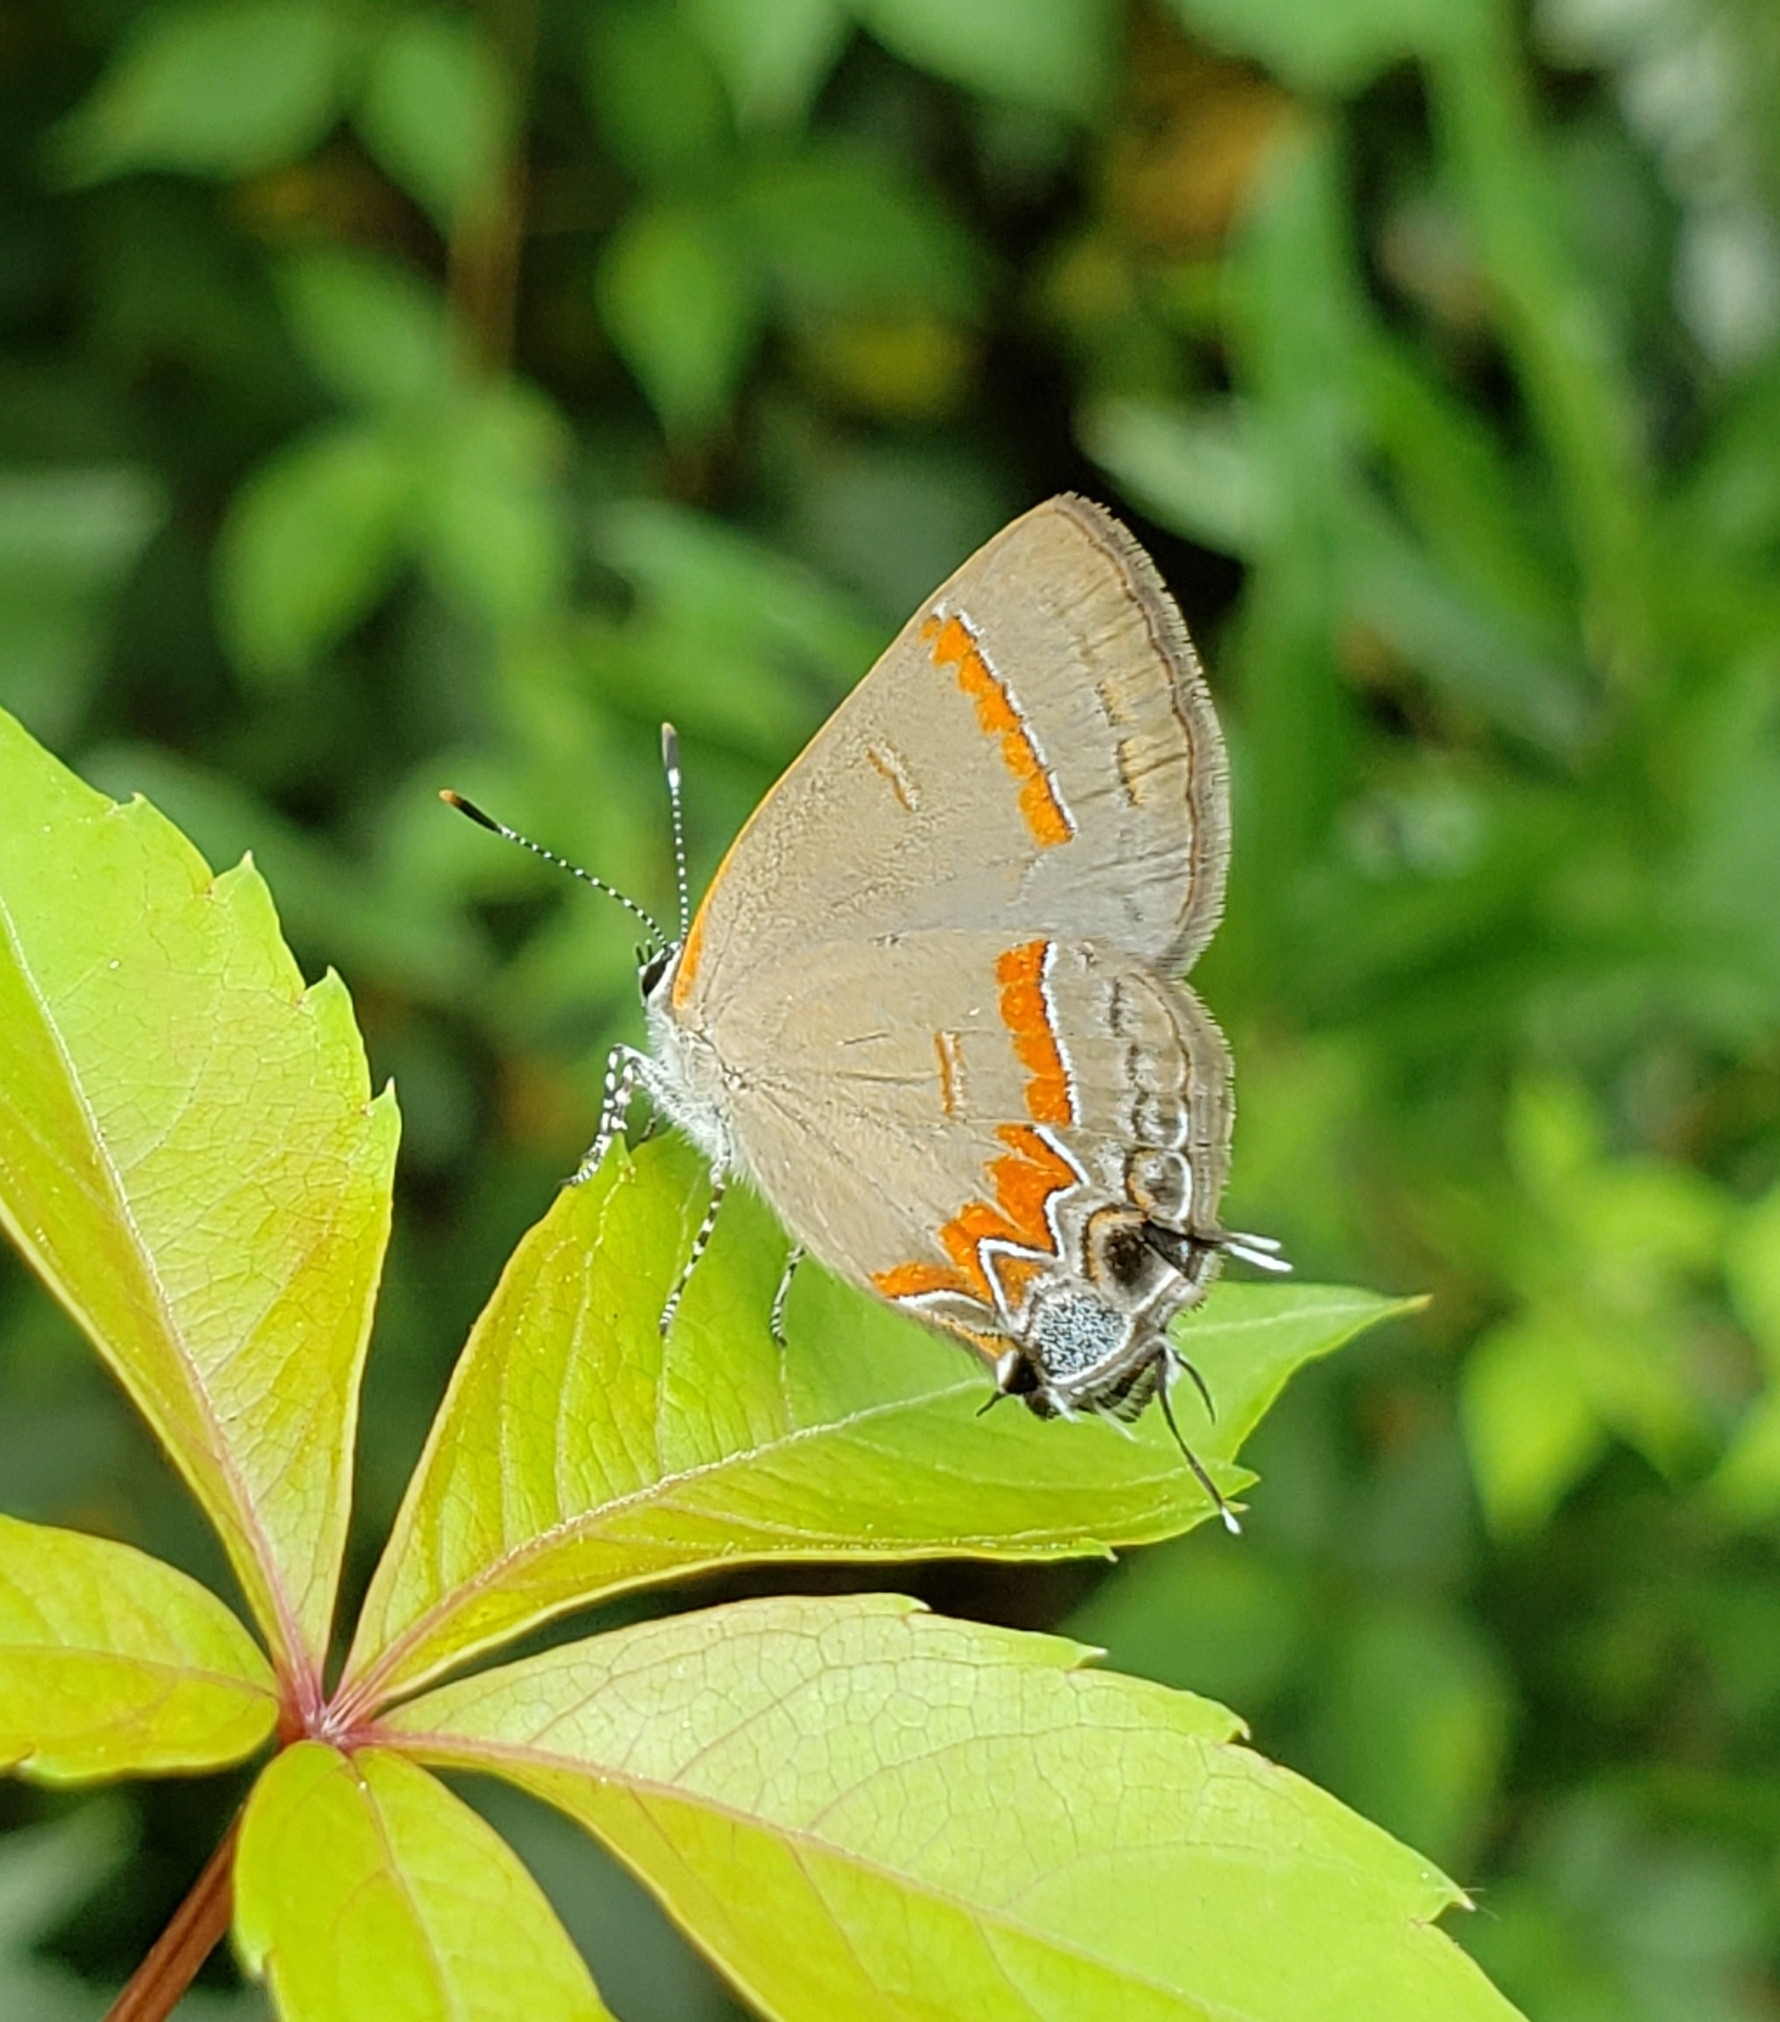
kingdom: Animalia
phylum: Arthropoda
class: Insecta
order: Lepidoptera
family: Lycaenidae
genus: Calycopis
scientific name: Calycopis cecrops
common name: Red-banded hairstreak
